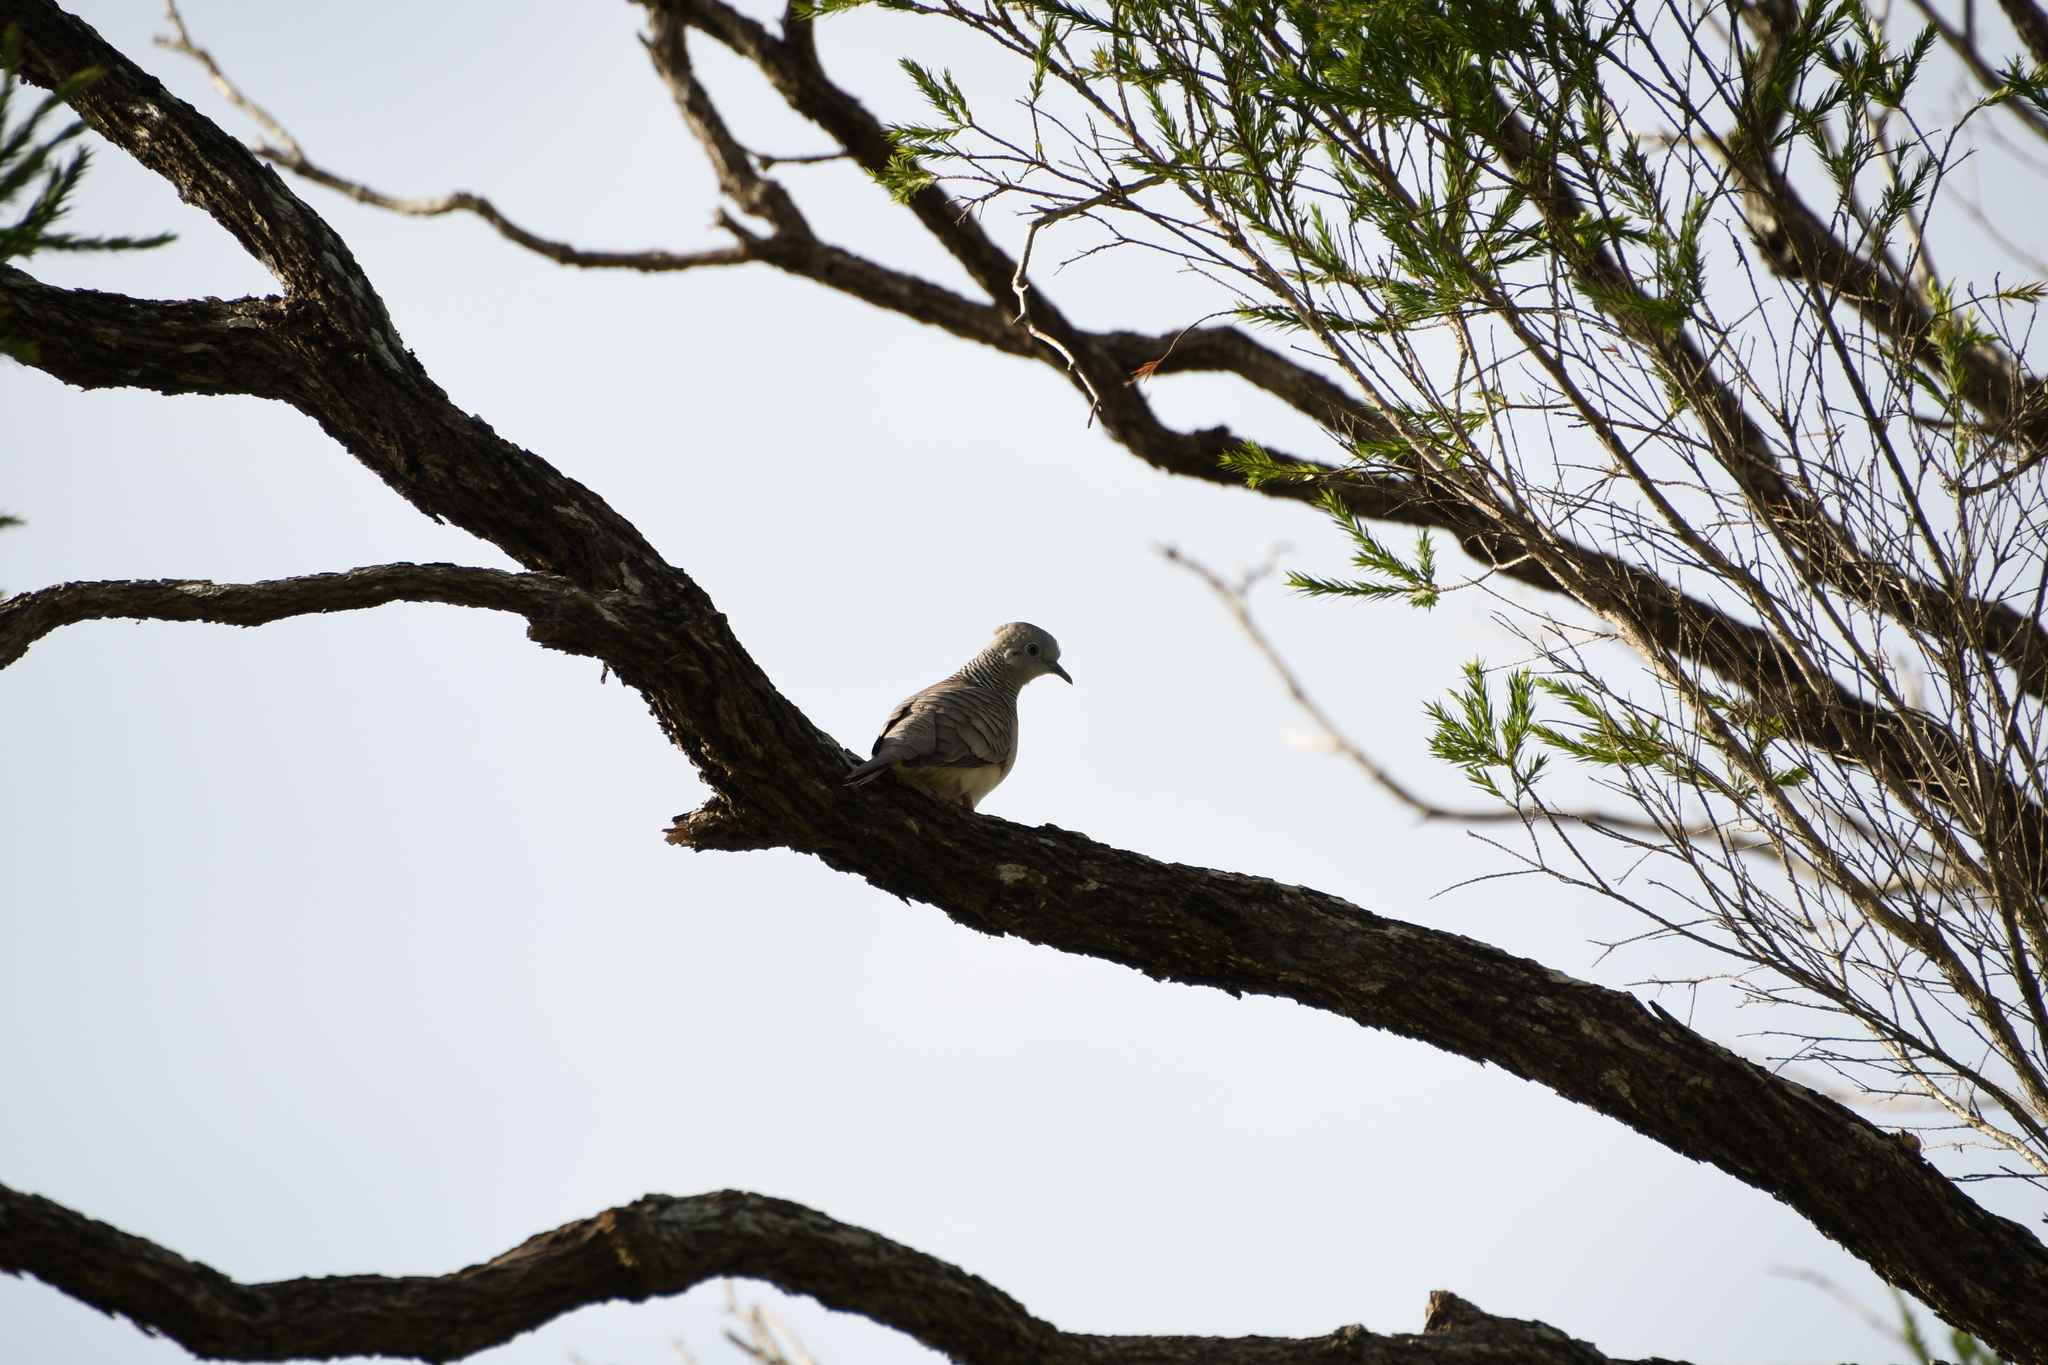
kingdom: Animalia
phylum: Chordata
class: Aves
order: Columbiformes
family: Columbidae
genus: Geopelia
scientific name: Geopelia placida
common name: Peaceful dove
